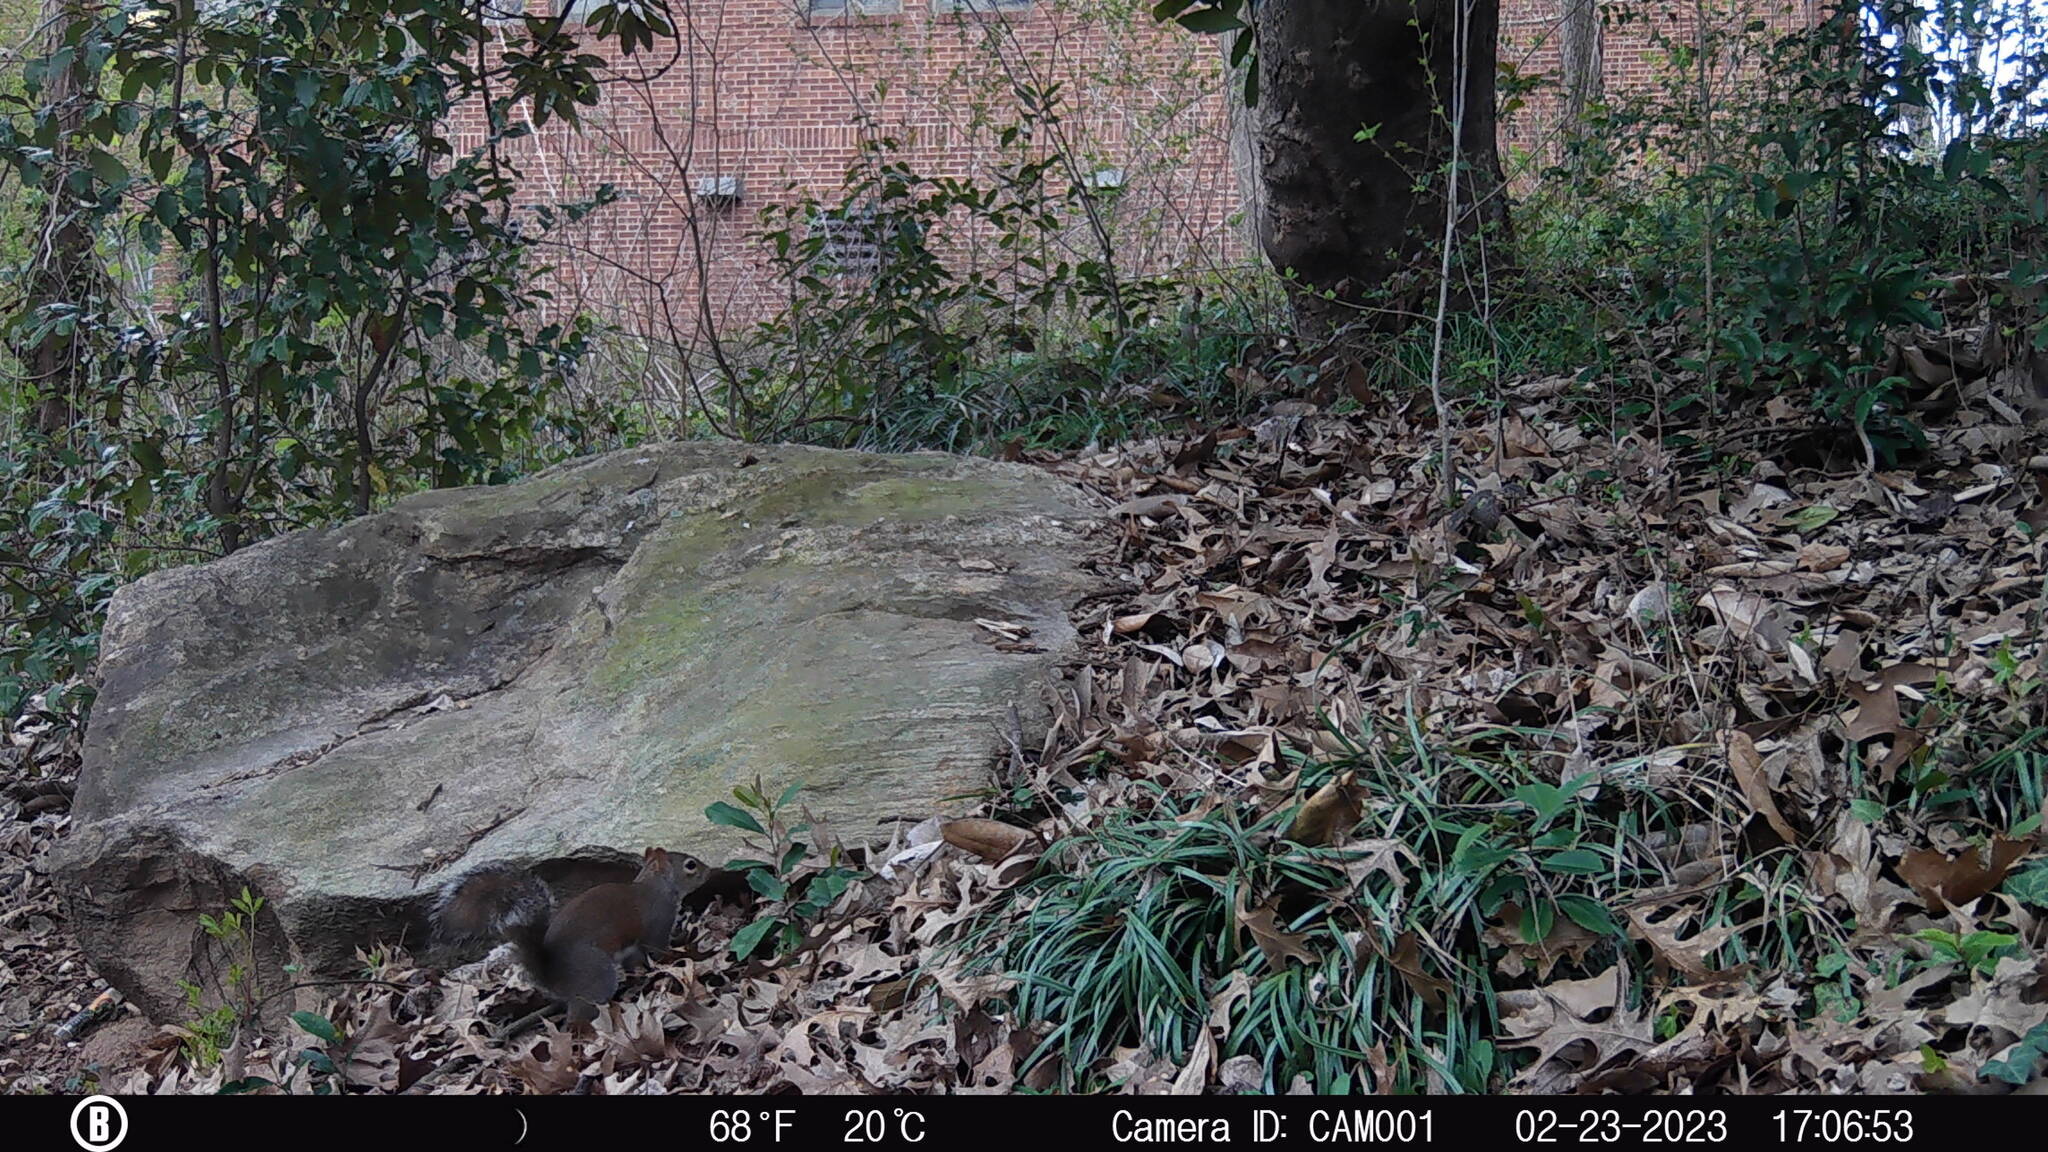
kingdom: Animalia
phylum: Chordata
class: Mammalia
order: Rodentia
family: Sciuridae
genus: Sciurus
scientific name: Sciurus carolinensis
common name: Eastern gray squirrel
